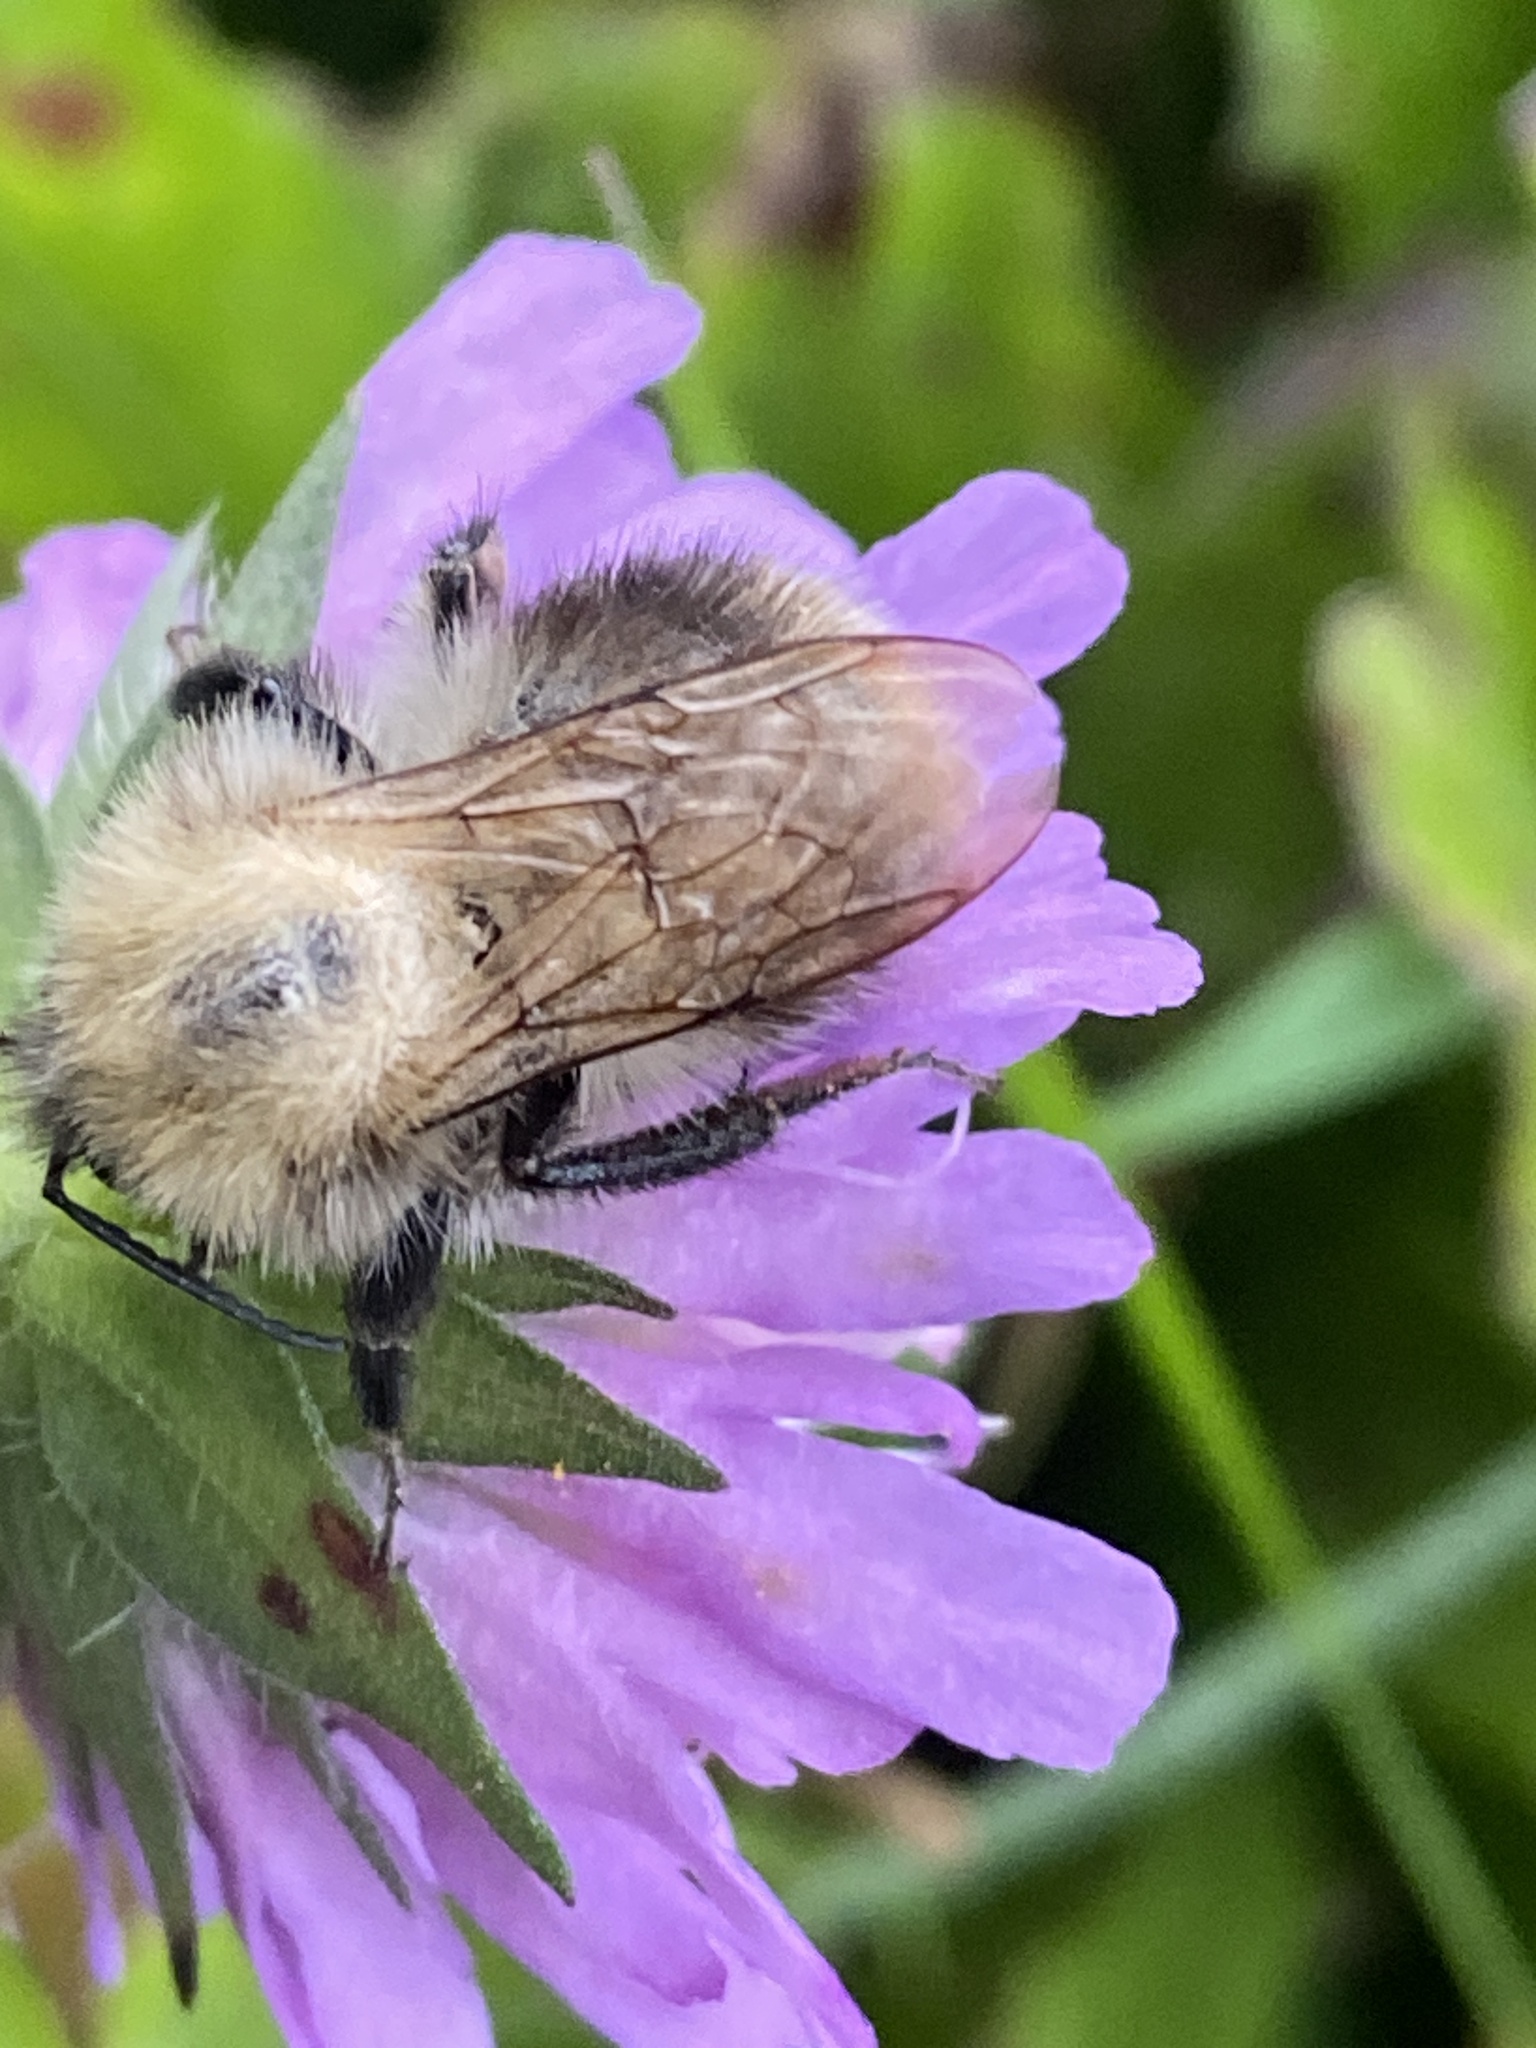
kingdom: Animalia
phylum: Arthropoda
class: Insecta
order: Hymenoptera
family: Apidae
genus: Bombus
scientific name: Bombus pascuorum
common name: Common carder bee
